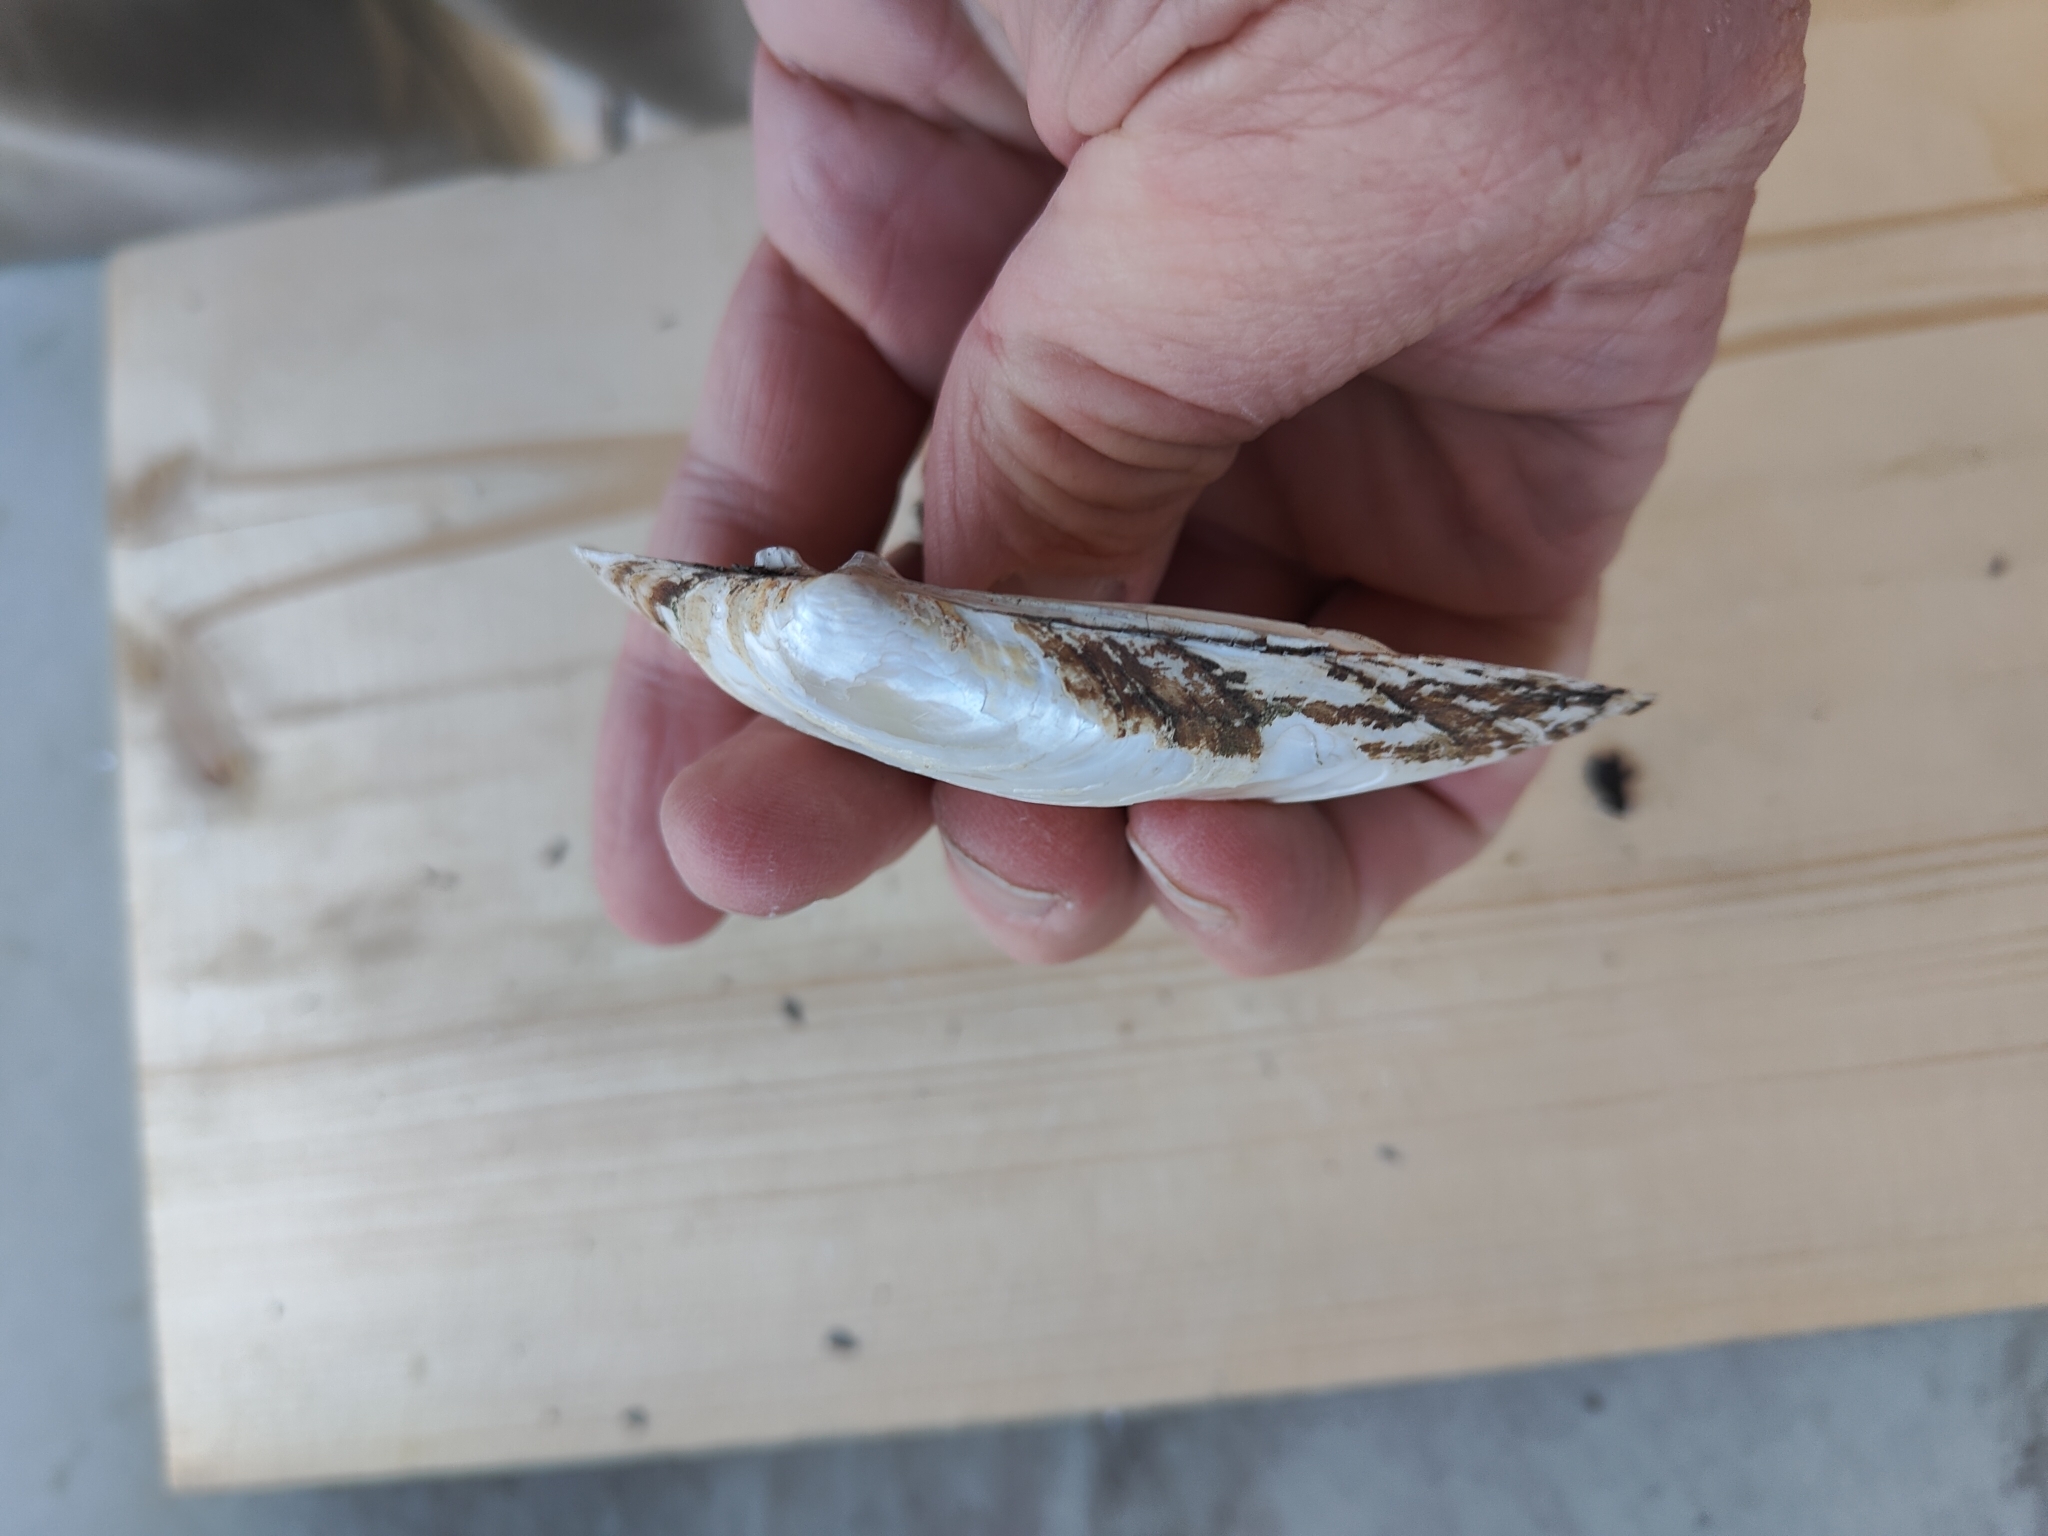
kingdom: Animalia
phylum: Mollusca
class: Bivalvia
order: Unionida
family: Unionidae
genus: Lampsilis
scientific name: Lampsilis siliquoidea
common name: Fatmucket
